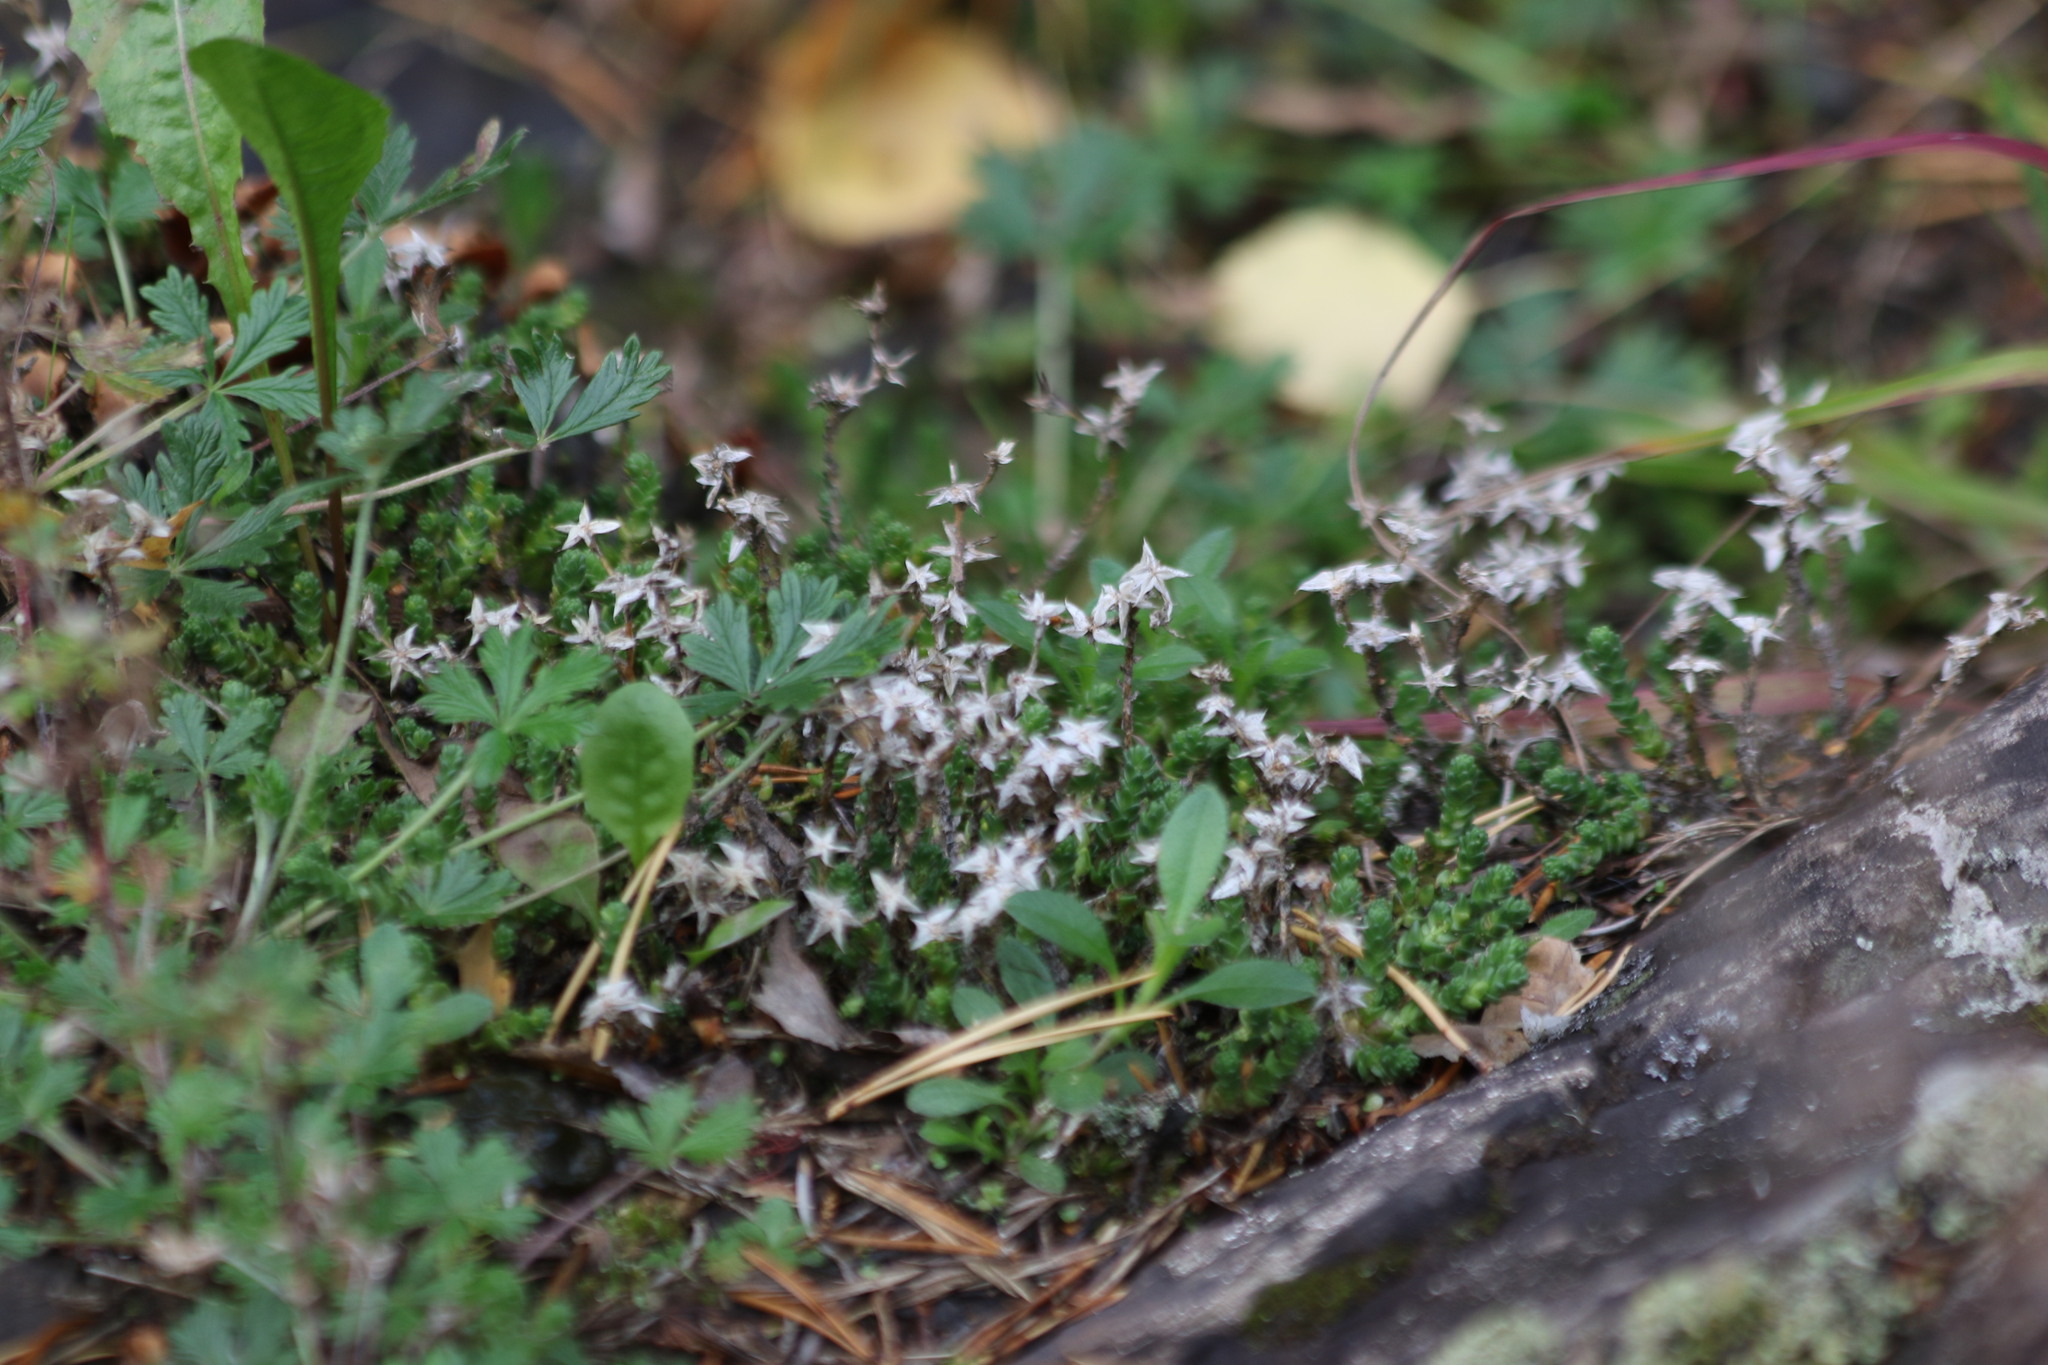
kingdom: Plantae
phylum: Tracheophyta
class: Magnoliopsida
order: Saxifragales
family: Crassulaceae
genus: Sedum
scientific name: Sedum acre
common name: Biting stonecrop
